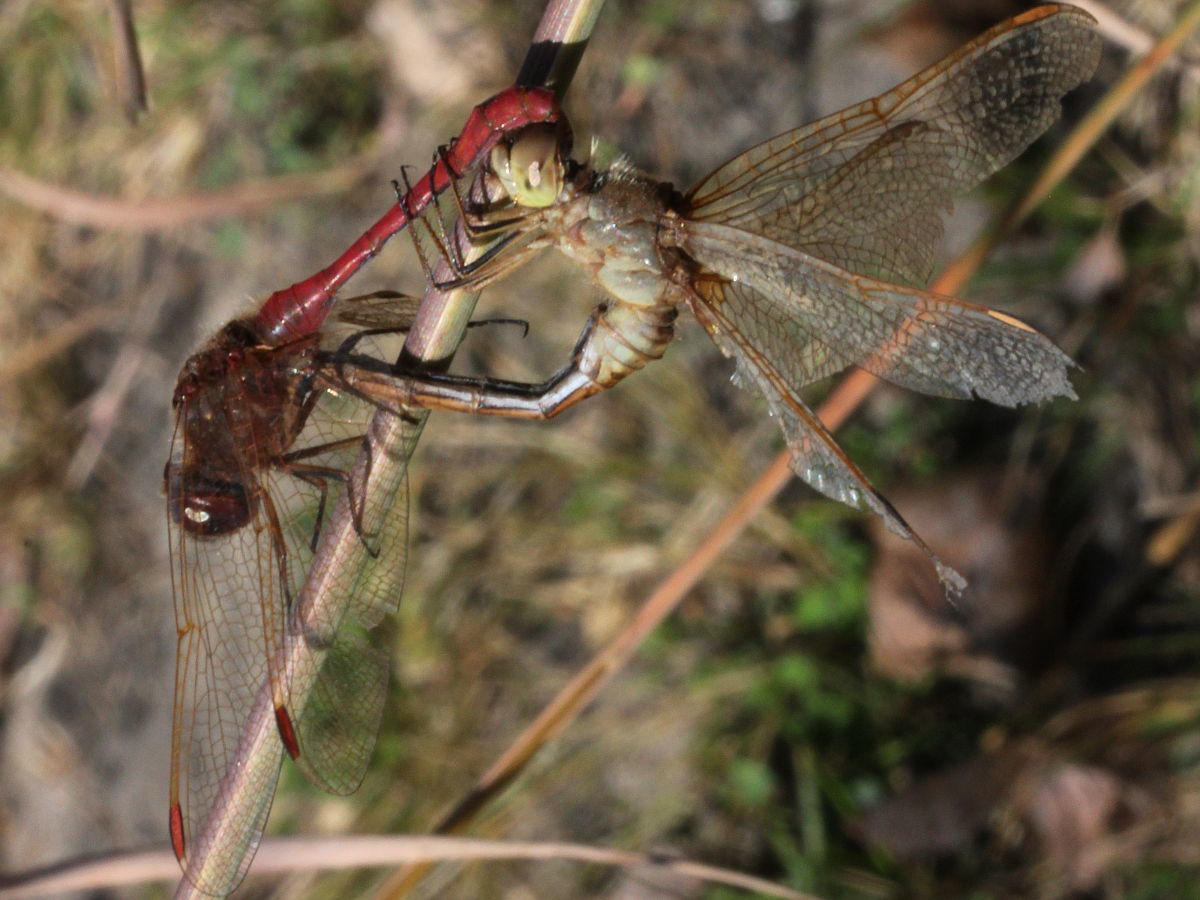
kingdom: Animalia
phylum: Arthropoda
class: Insecta
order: Odonata
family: Libellulidae
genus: Sympetrum
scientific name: Sympetrum costiferum
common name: Saffron-winged meadowhawk
